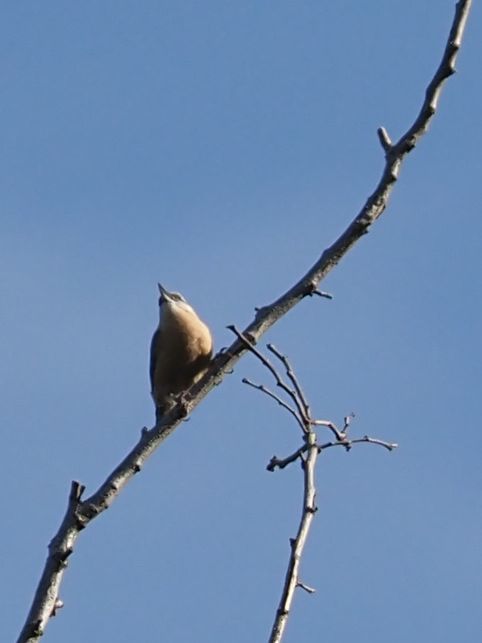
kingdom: Animalia
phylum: Chordata
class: Aves
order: Passeriformes
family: Sittidae
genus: Sitta
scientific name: Sitta europaea
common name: Eurasian nuthatch
